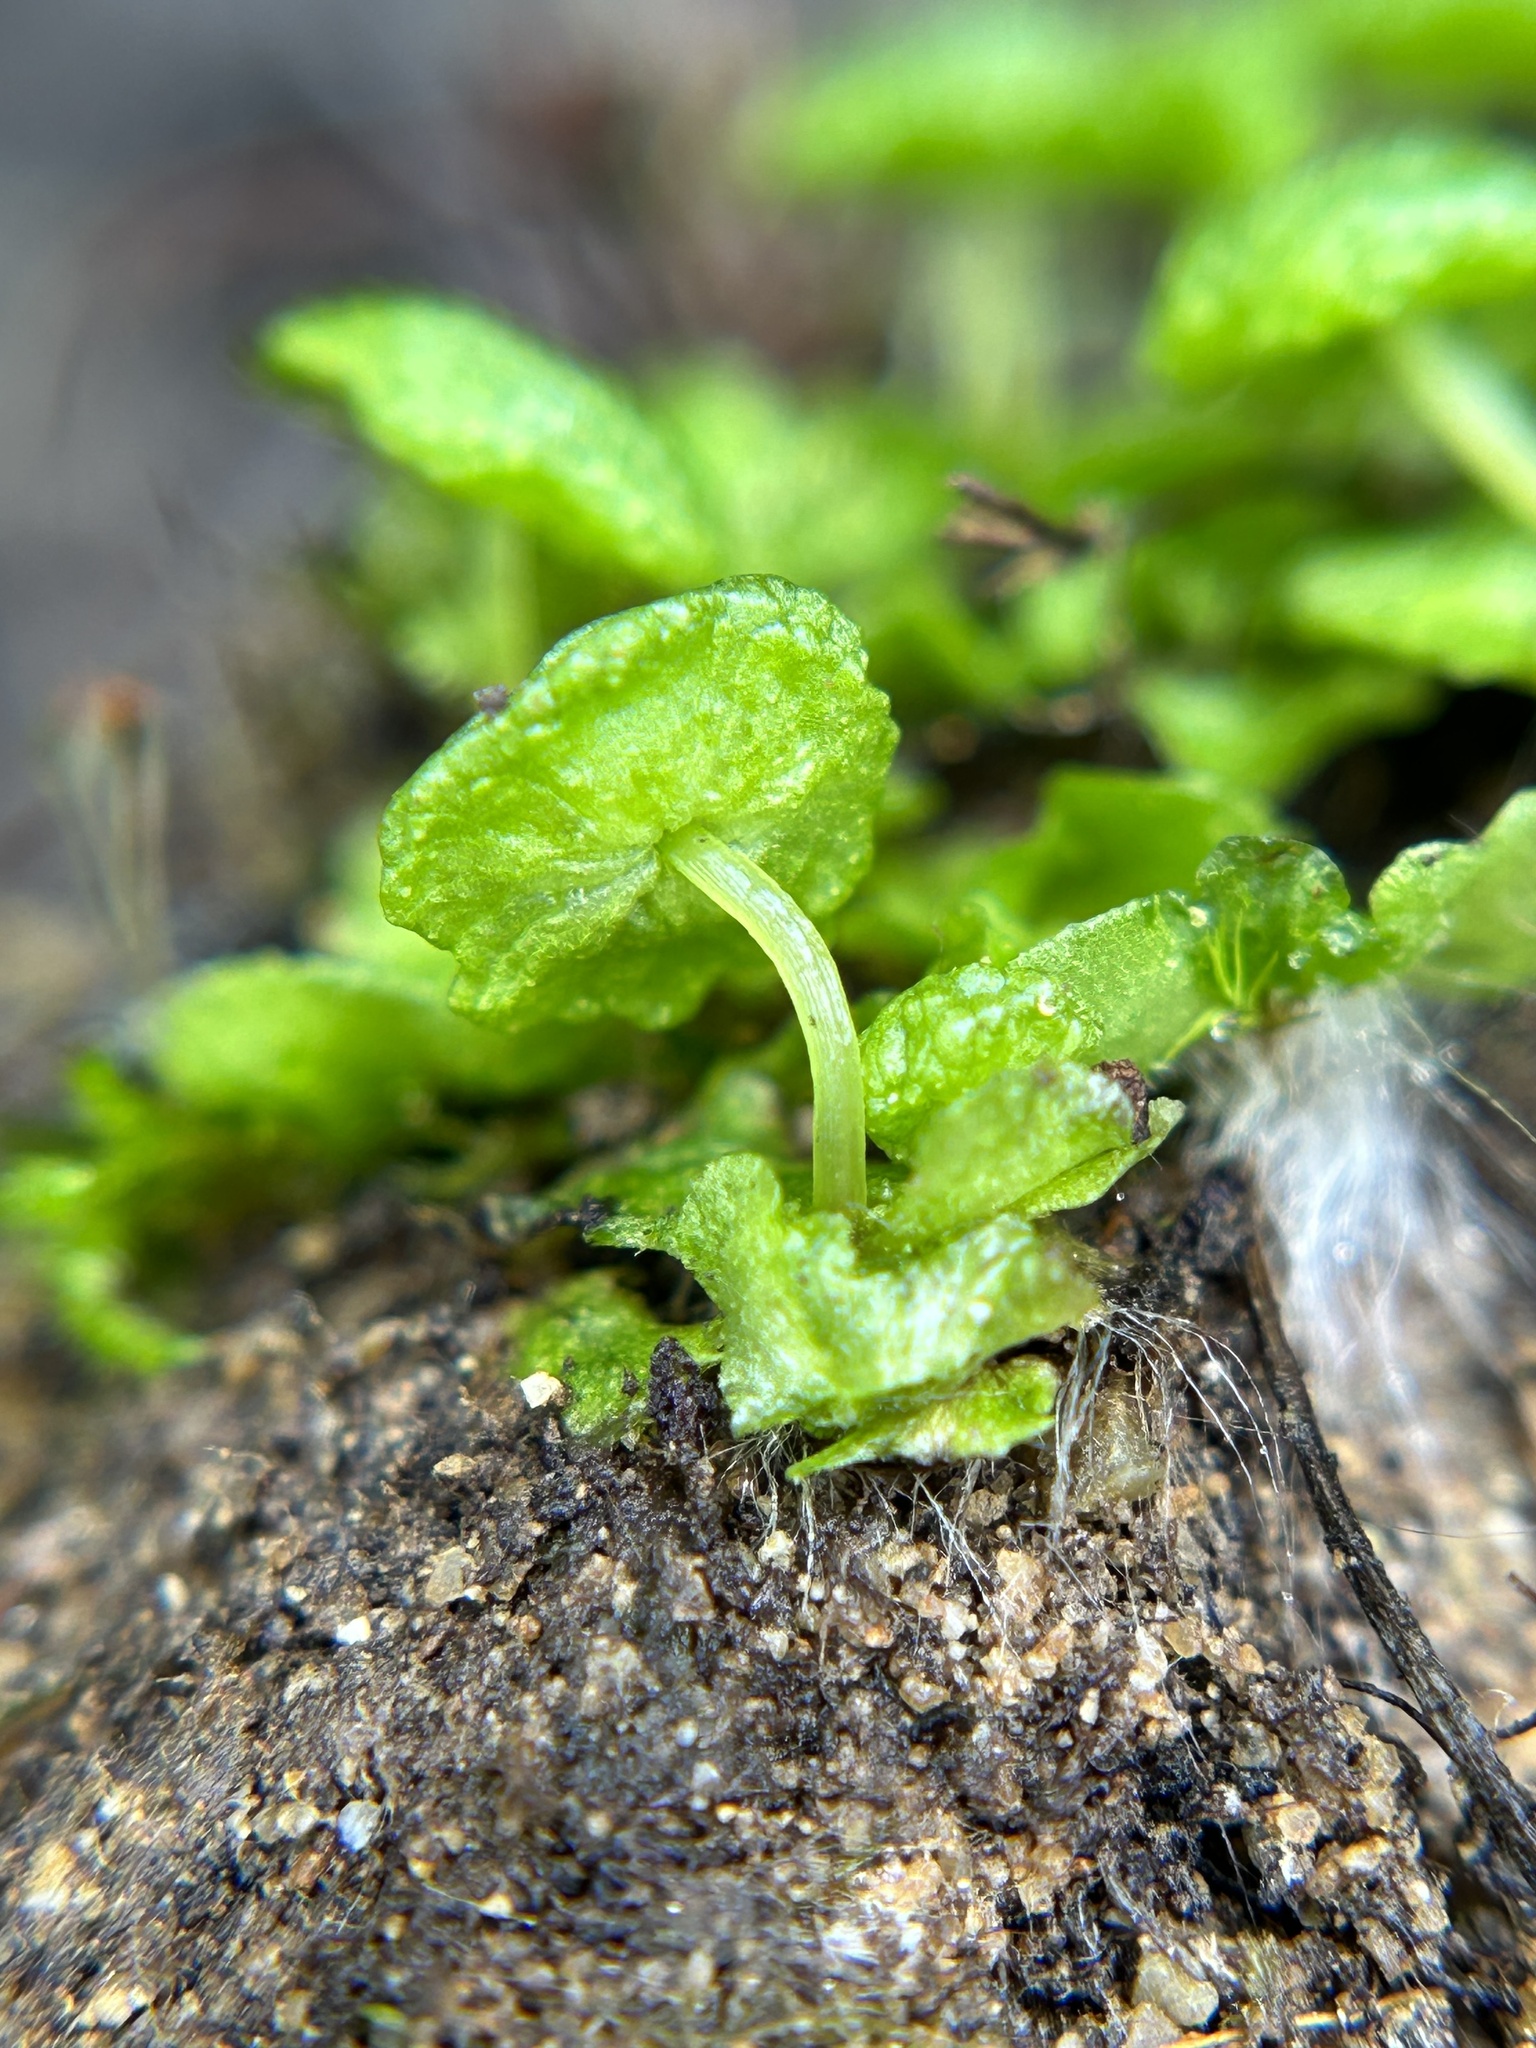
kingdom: Plantae
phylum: Marchantiophyta
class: Marchantiopsida
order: Marchantiales
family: Aytoniaceae
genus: Cryptomitrium
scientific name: Cryptomitrium tenerum
